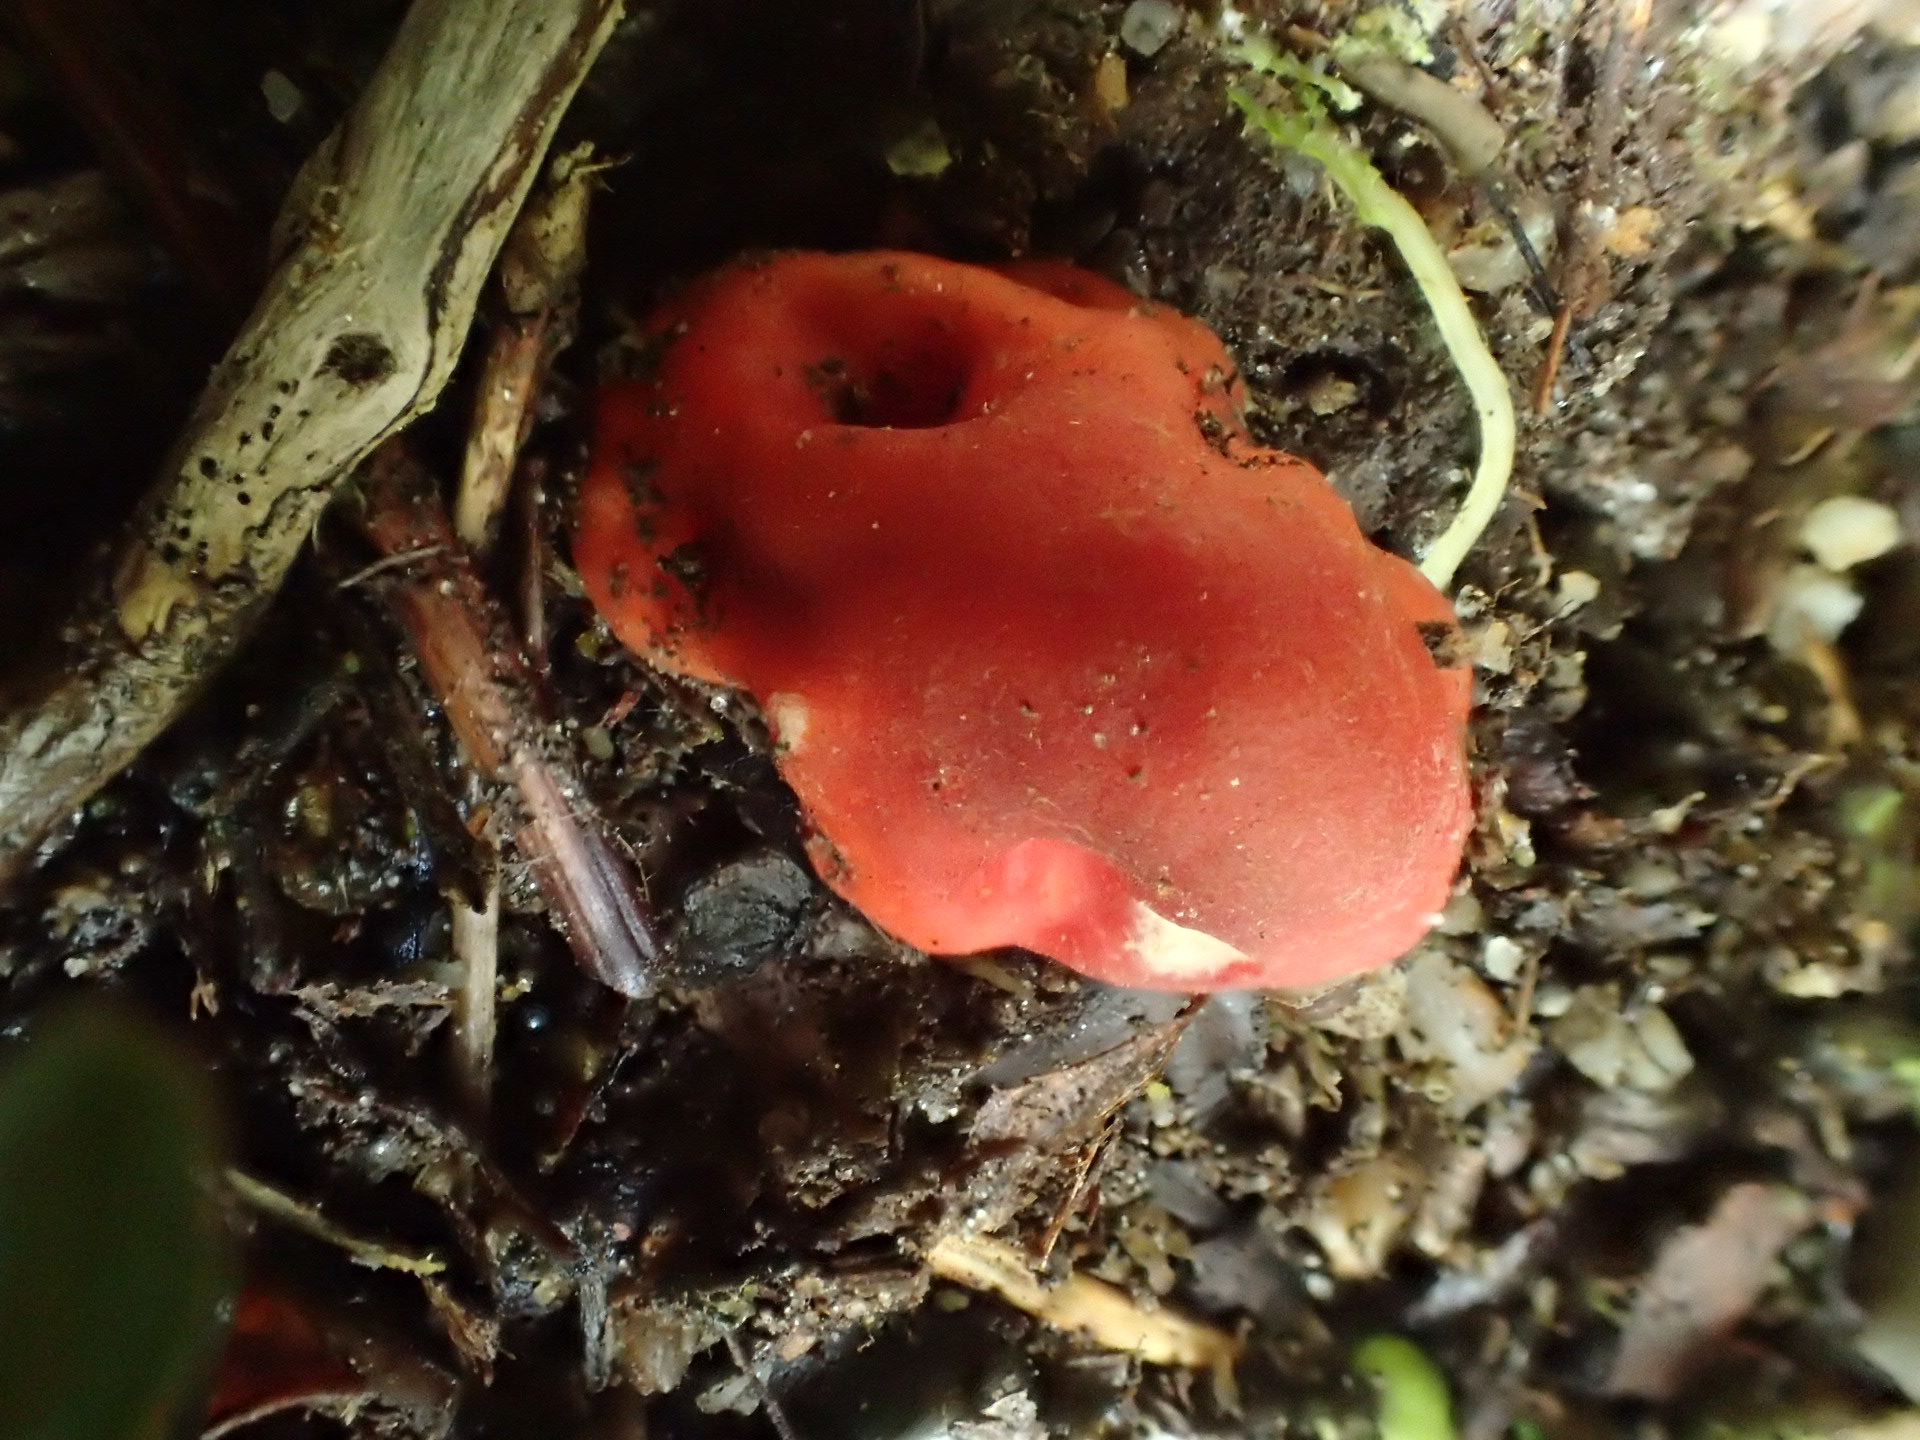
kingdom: Fungi
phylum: Ascomycota
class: Pezizomycetes
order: Pezizales
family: Pyronemataceae
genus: Paurocotylis
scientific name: Paurocotylis pila
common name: Scarlet berry truffle
